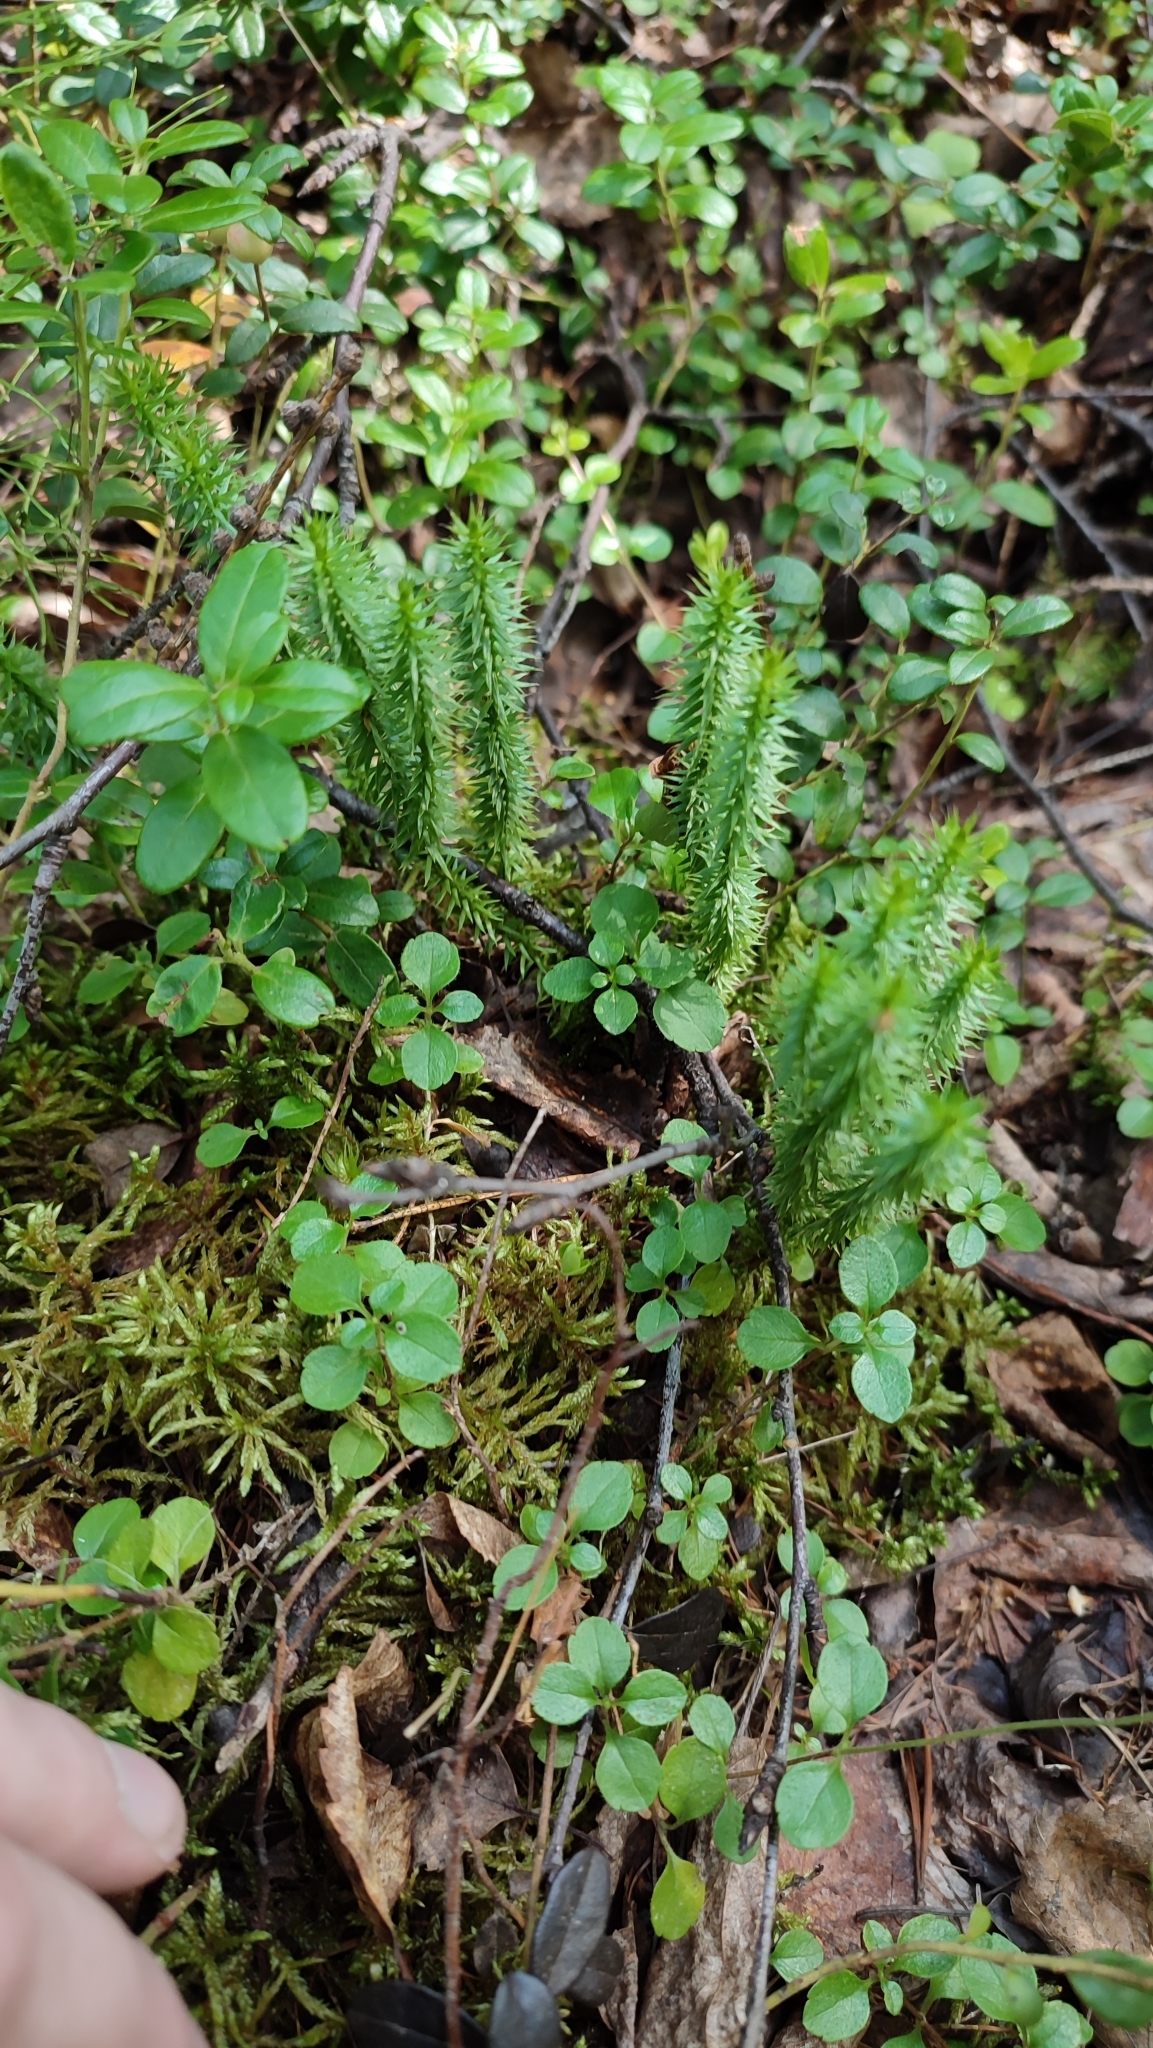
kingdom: Plantae
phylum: Tracheophyta
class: Lycopodiopsida
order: Lycopodiales
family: Lycopodiaceae
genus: Spinulum
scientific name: Spinulum annotinum
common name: Interrupted club-moss
